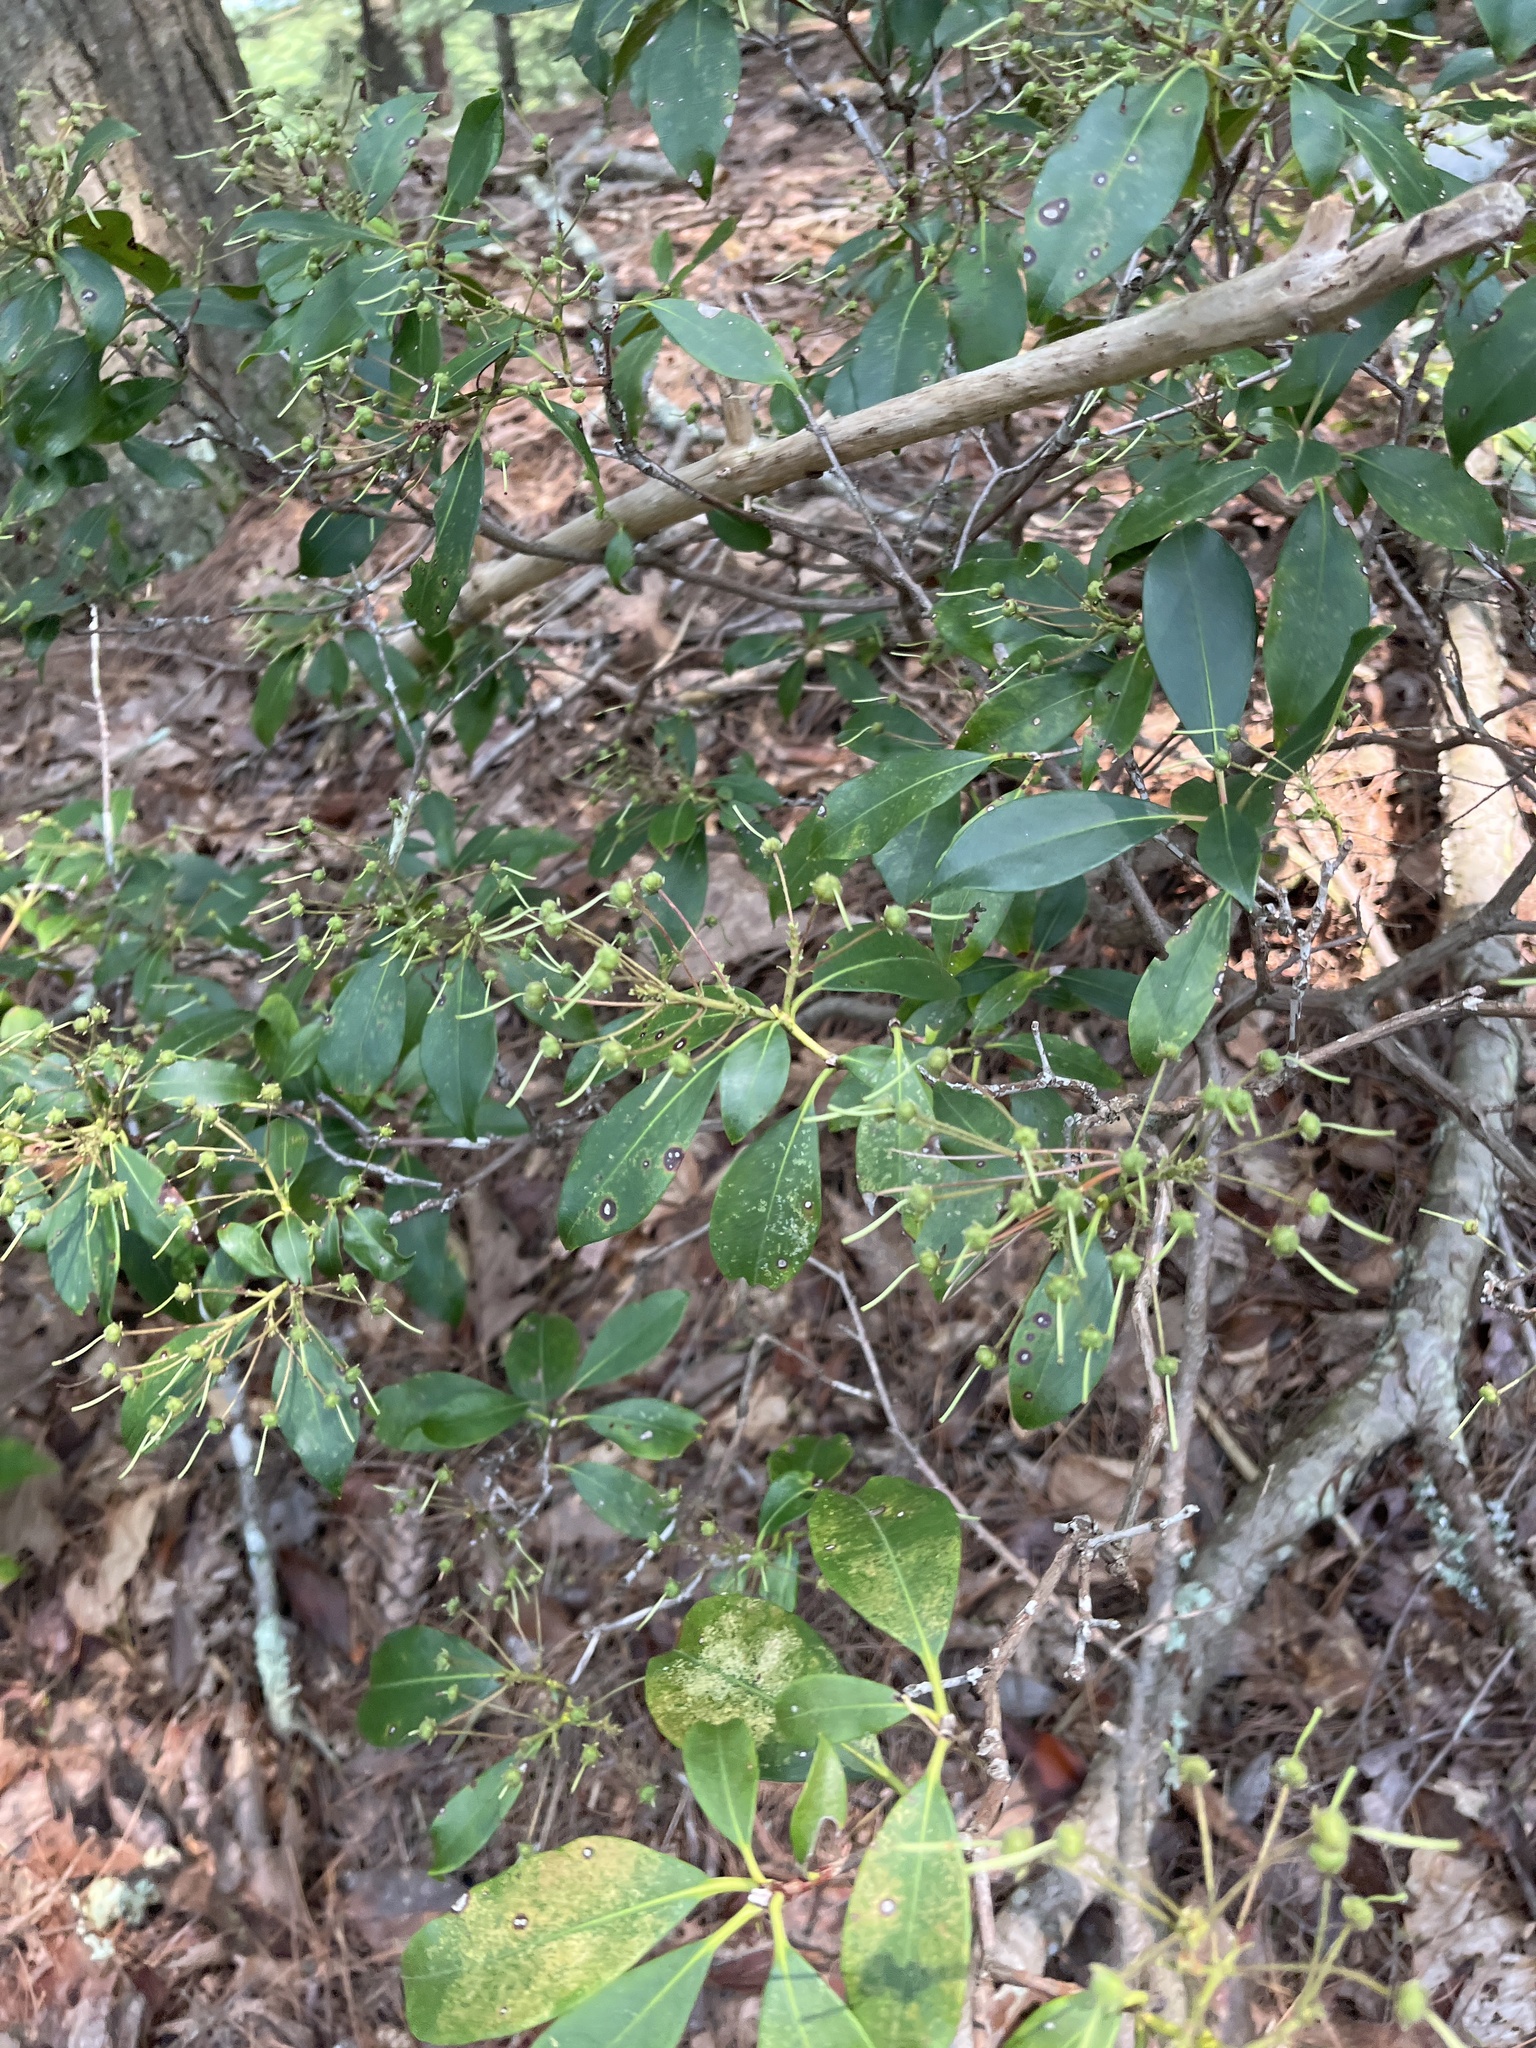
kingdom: Plantae
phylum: Tracheophyta
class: Magnoliopsida
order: Ericales
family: Ericaceae
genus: Kalmia
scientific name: Kalmia latifolia
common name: Mountain-laurel
